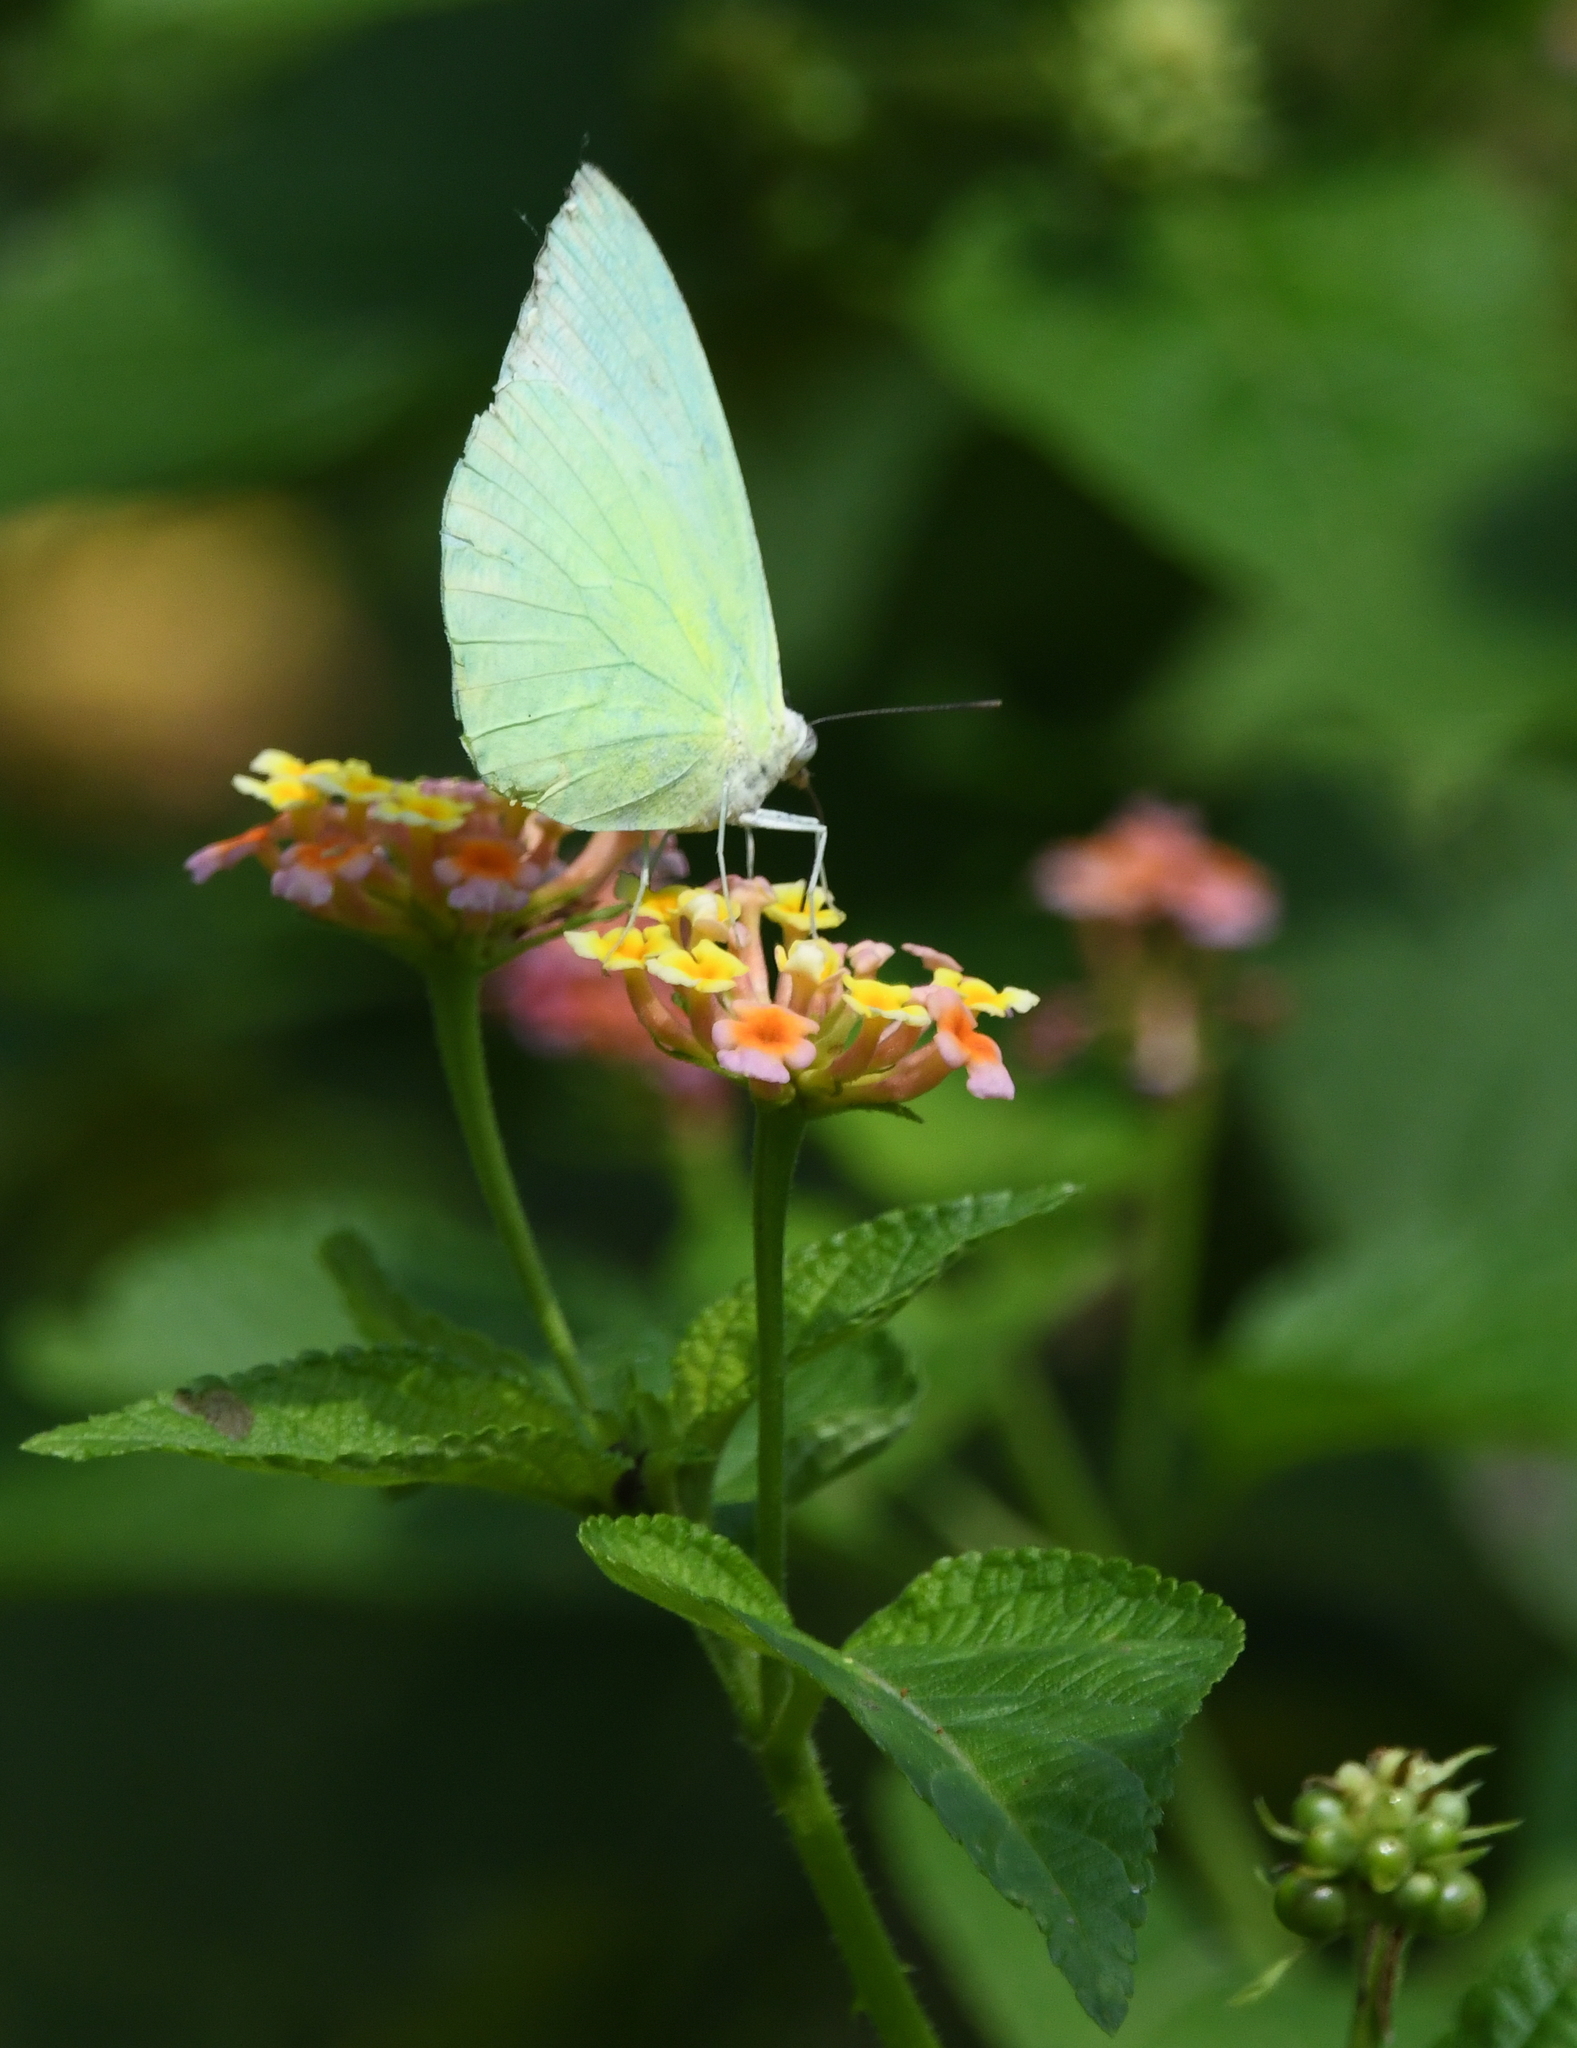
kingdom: Animalia
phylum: Arthropoda
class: Insecta
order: Lepidoptera
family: Pieridae
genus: Catopsilia
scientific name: Catopsilia pomona
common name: Common emigrant
